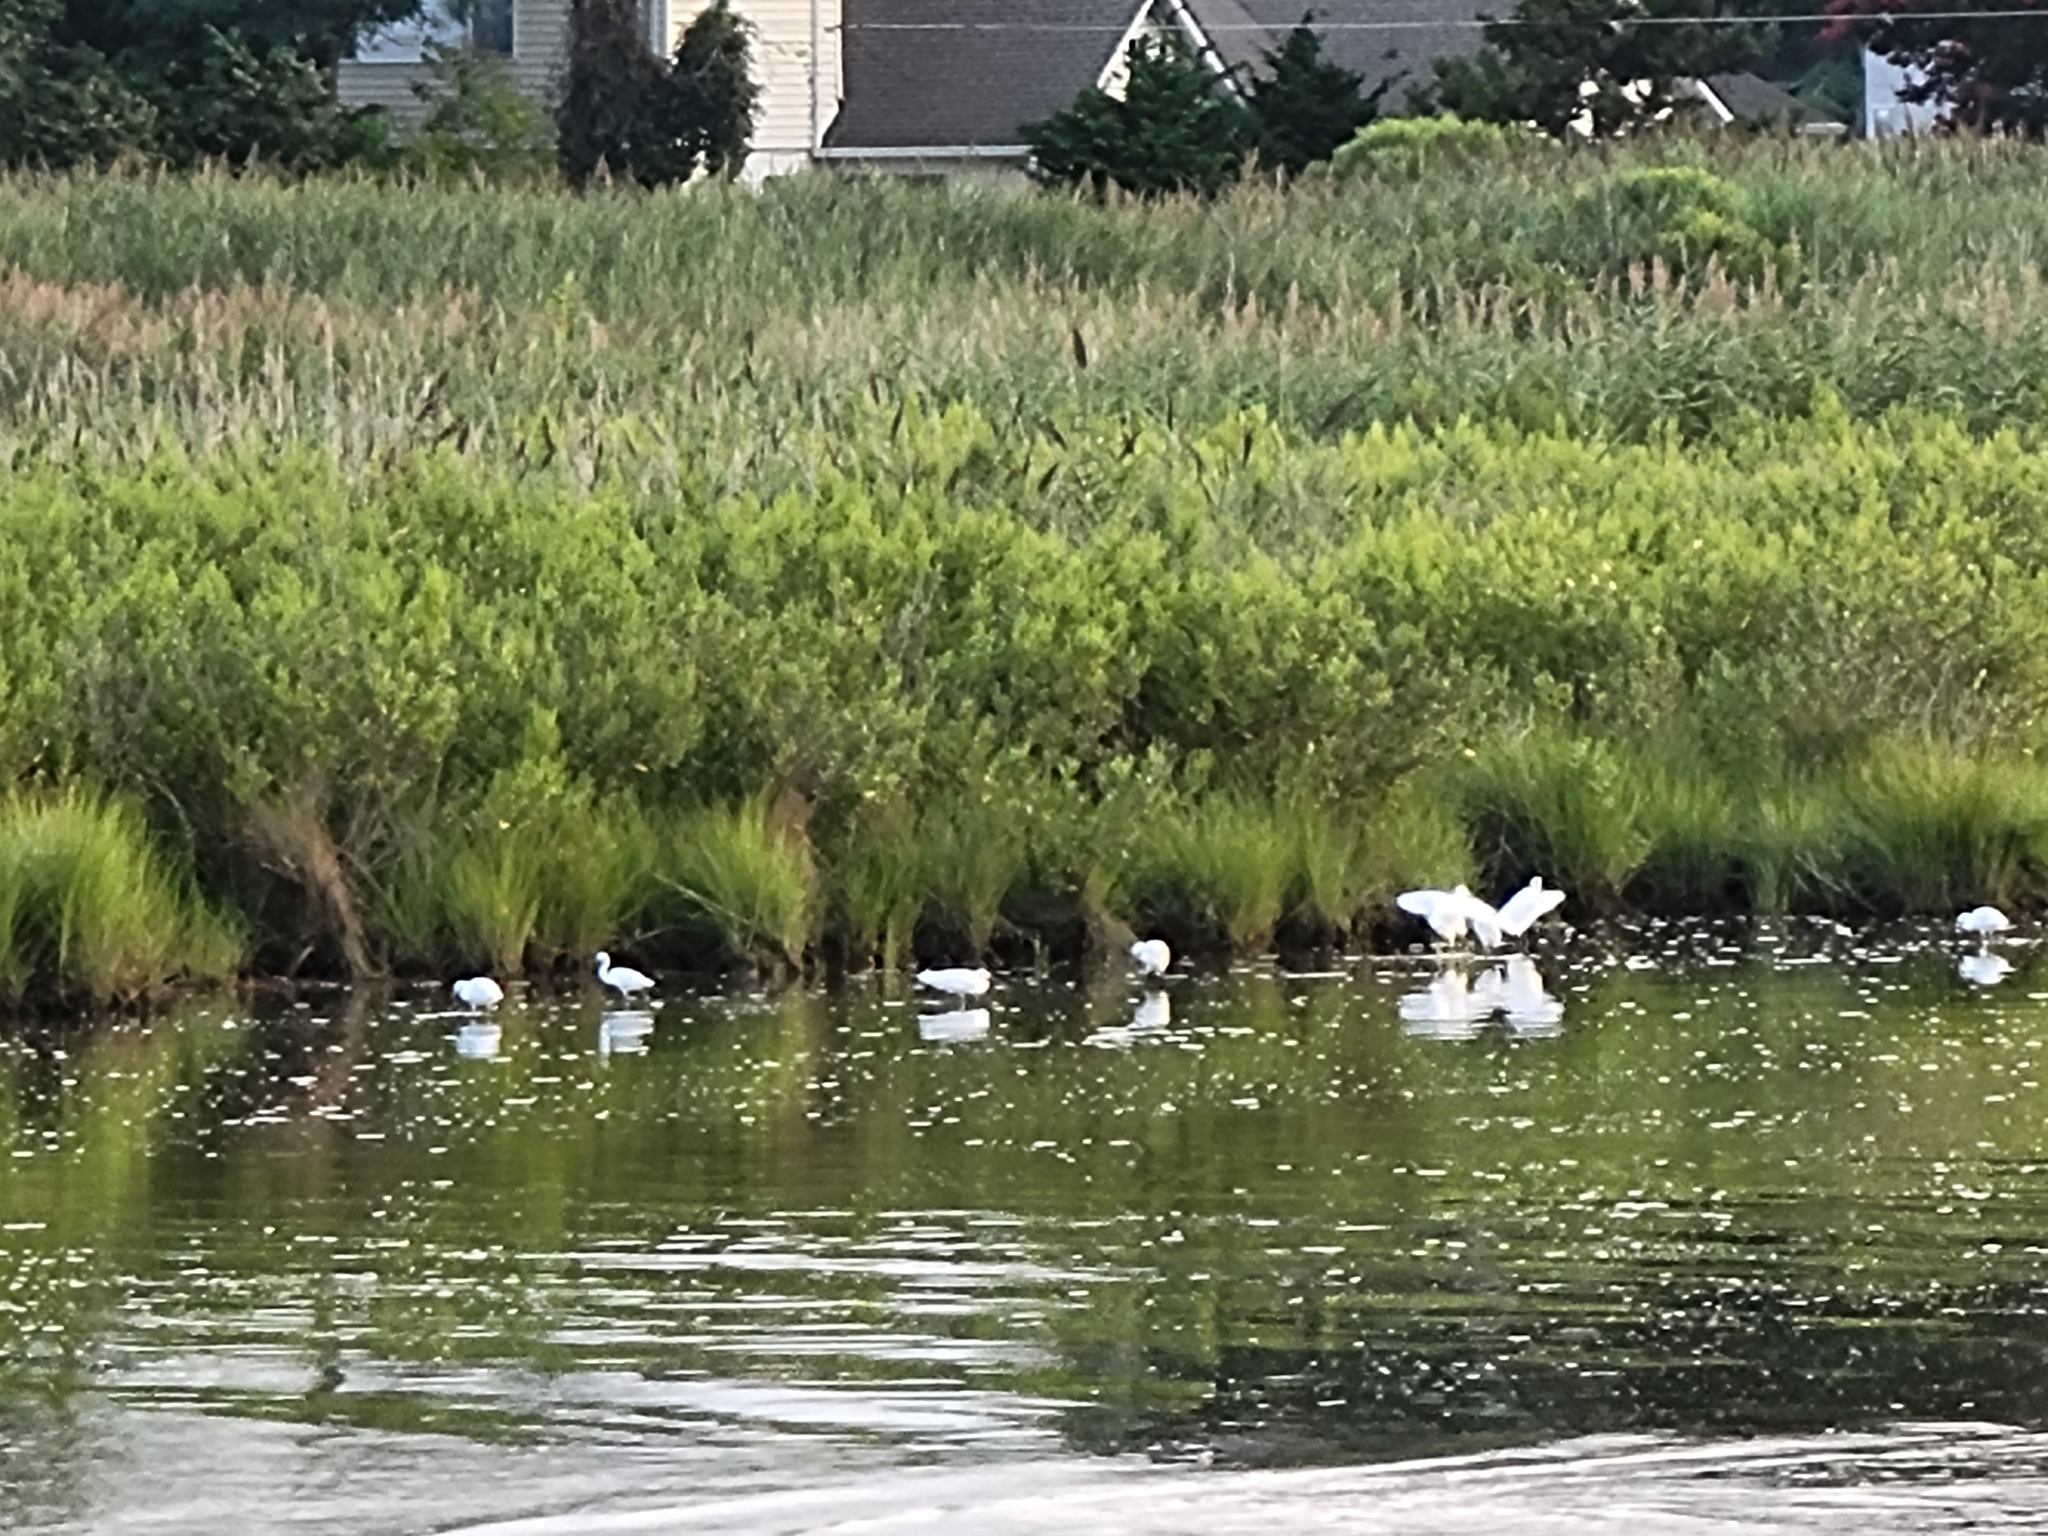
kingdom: Animalia
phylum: Chordata
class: Aves
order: Pelecaniformes
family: Ardeidae
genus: Egretta
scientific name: Egretta thula
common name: Snowy egret
